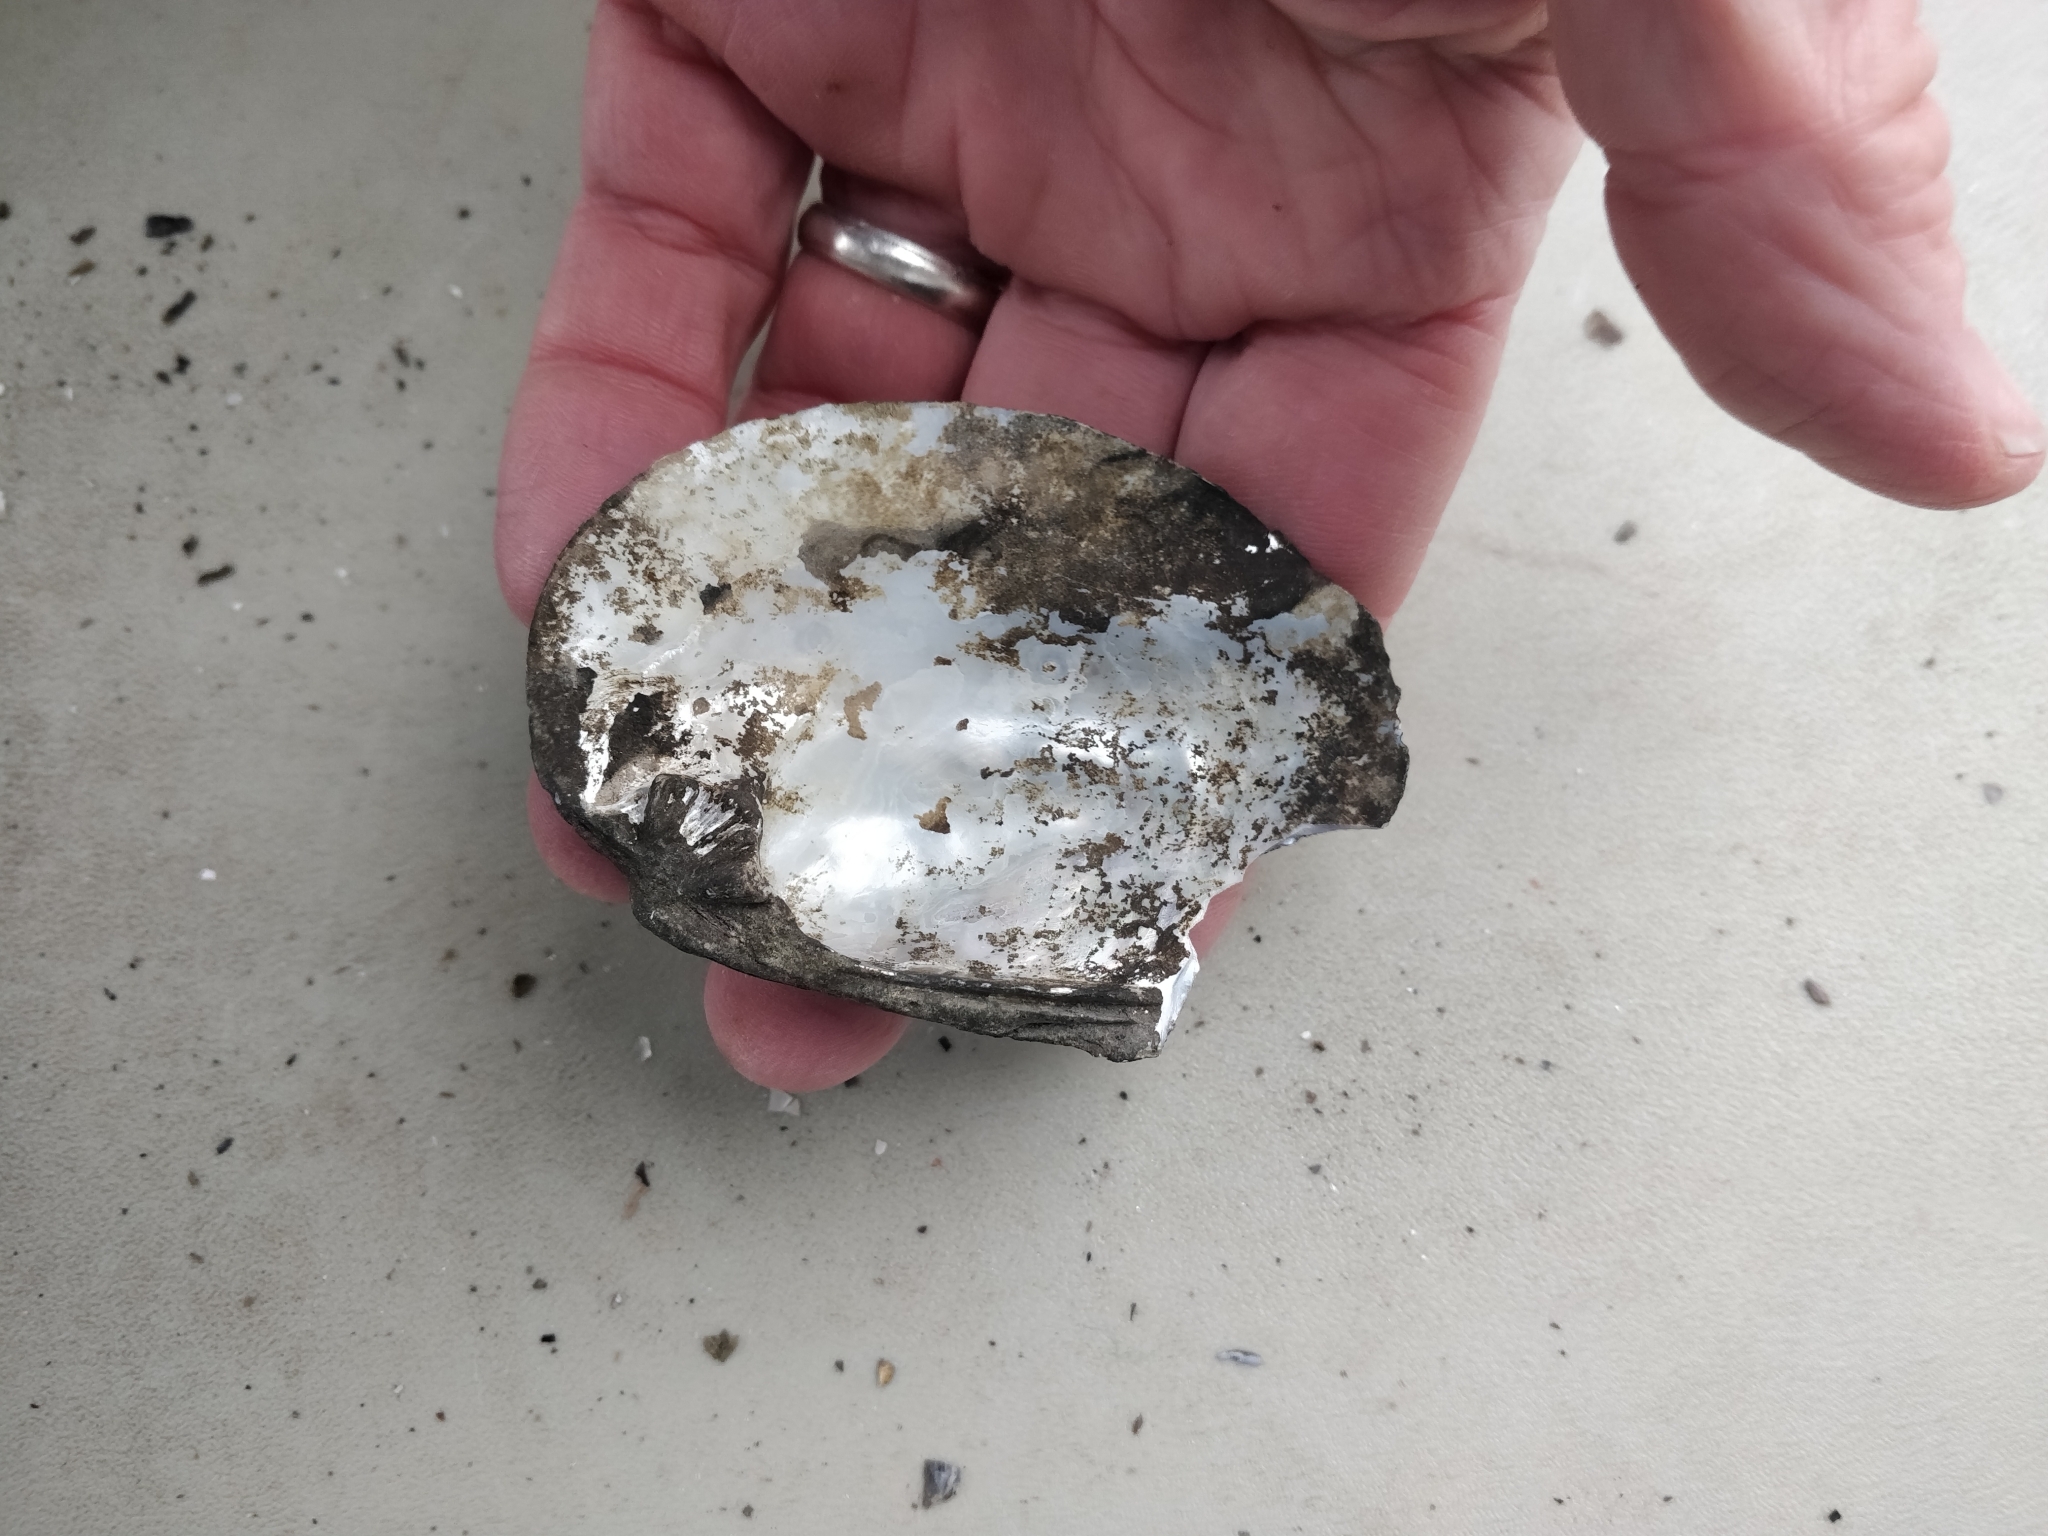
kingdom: Animalia
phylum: Mollusca
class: Bivalvia
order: Unionida
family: Unionidae
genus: Amblema
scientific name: Amblema plicata
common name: Threeridge
